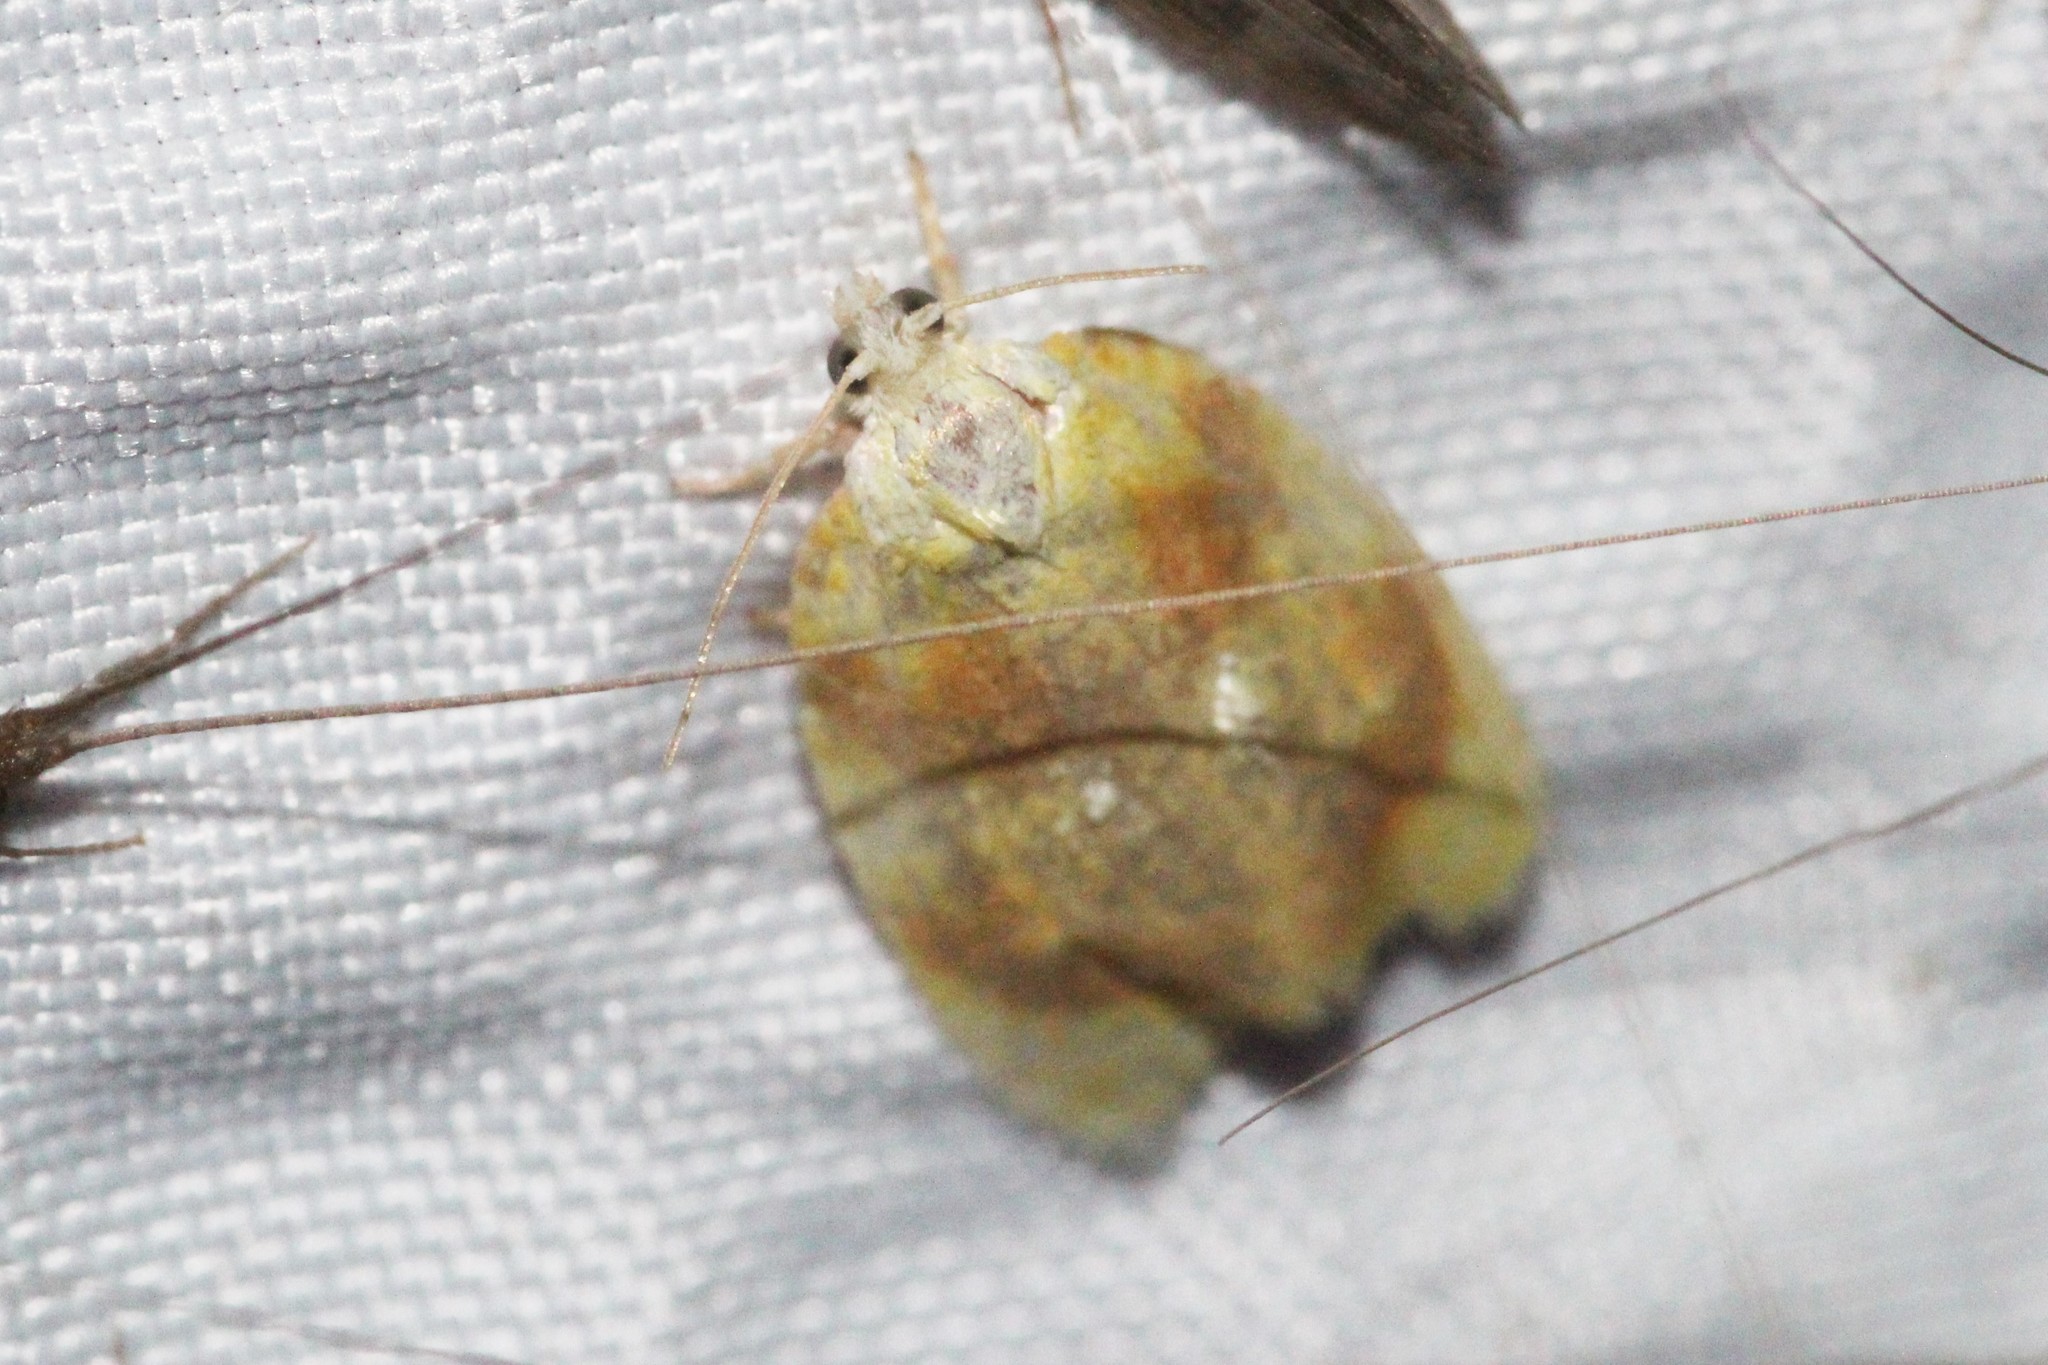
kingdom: Animalia
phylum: Arthropoda
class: Insecta
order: Lepidoptera
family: Tortricidae
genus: Acleris
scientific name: Acleris semipurpurana
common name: Oak leaftier moth
